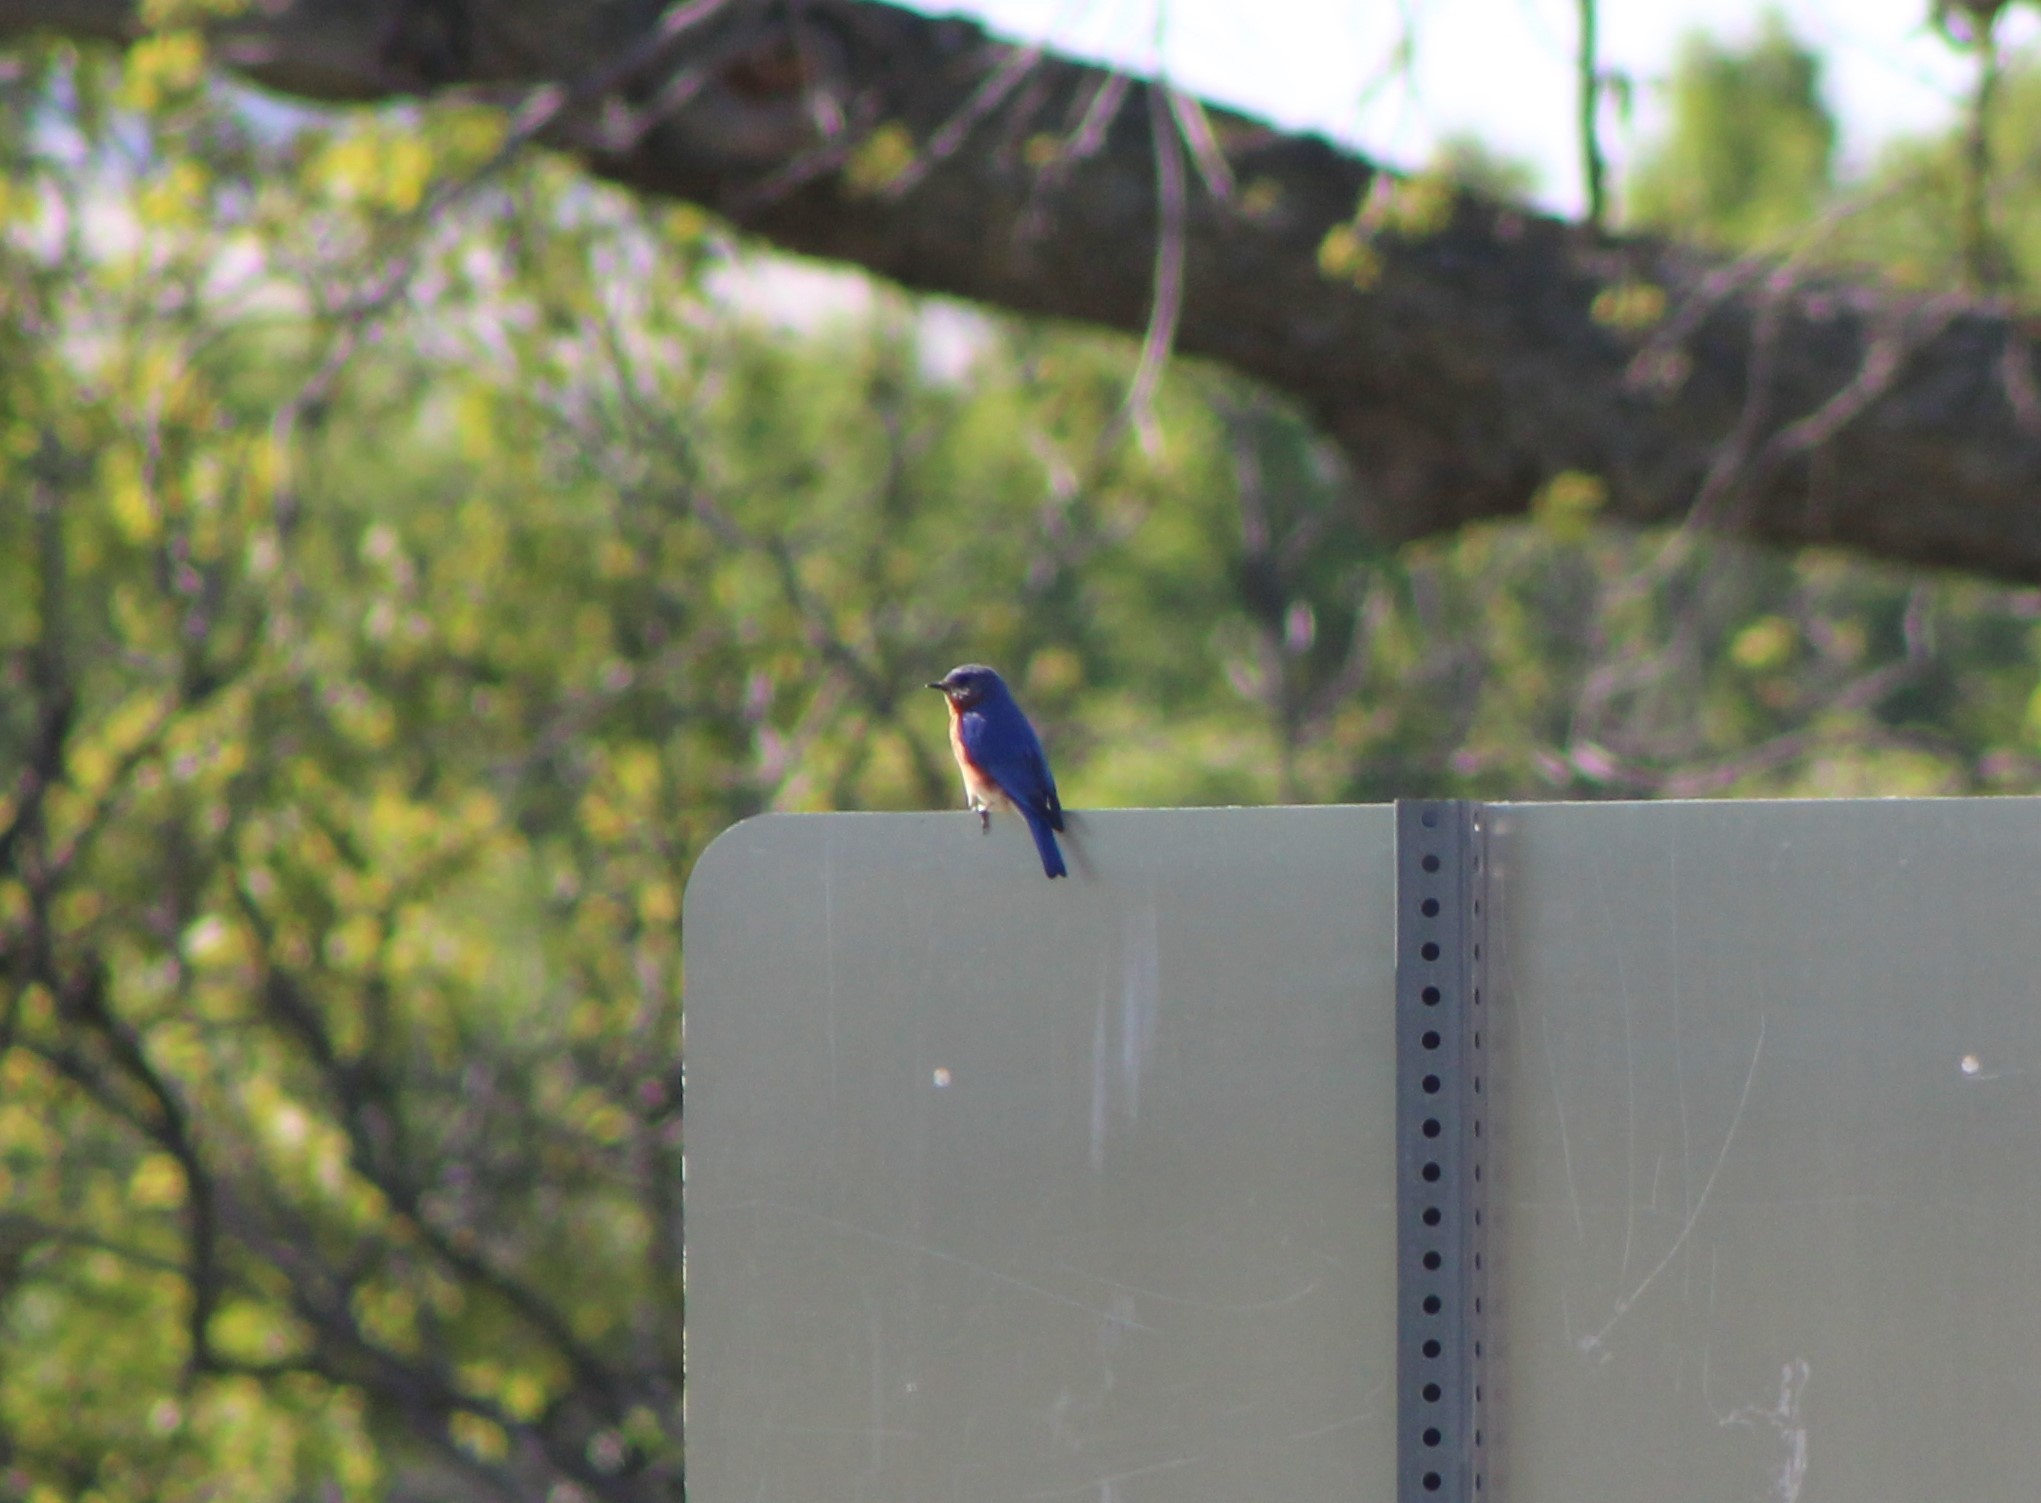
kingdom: Animalia
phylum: Chordata
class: Aves
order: Passeriformes
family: Turdidae
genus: Sialia
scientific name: Sialia sialis
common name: Eastern bluebird
